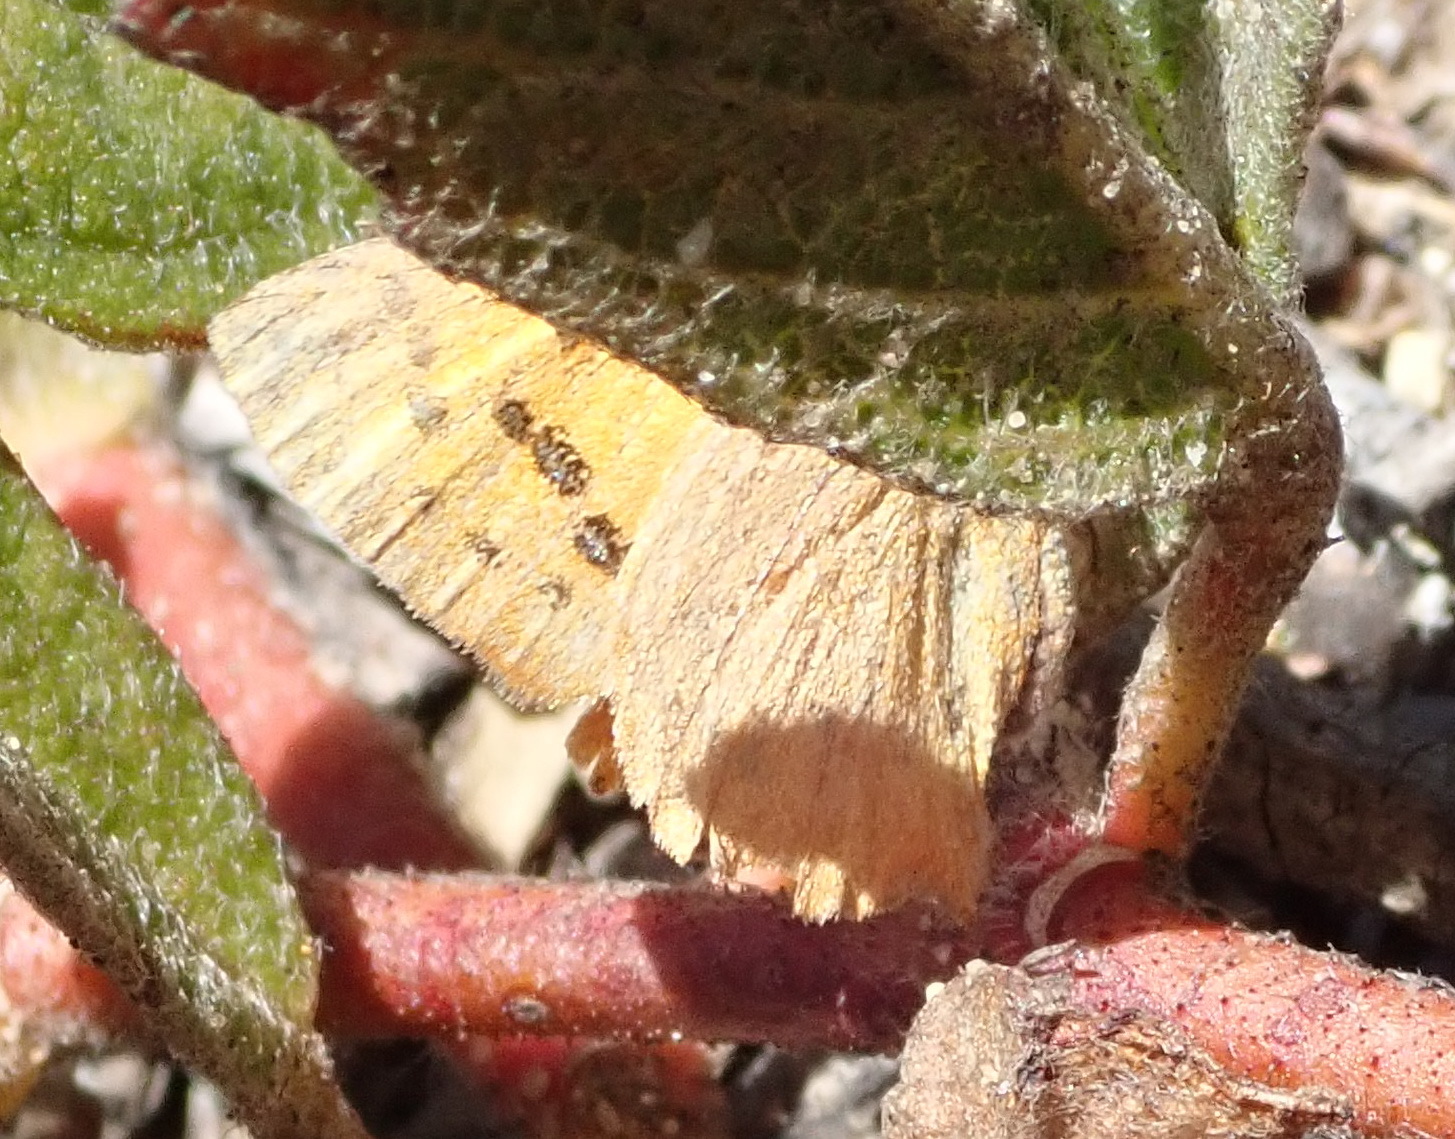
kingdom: Animalia
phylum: Arthropoda
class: Insecta
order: Lepidoptera
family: Lycaenidae
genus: Zeritis
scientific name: Zeritis chrysaor
